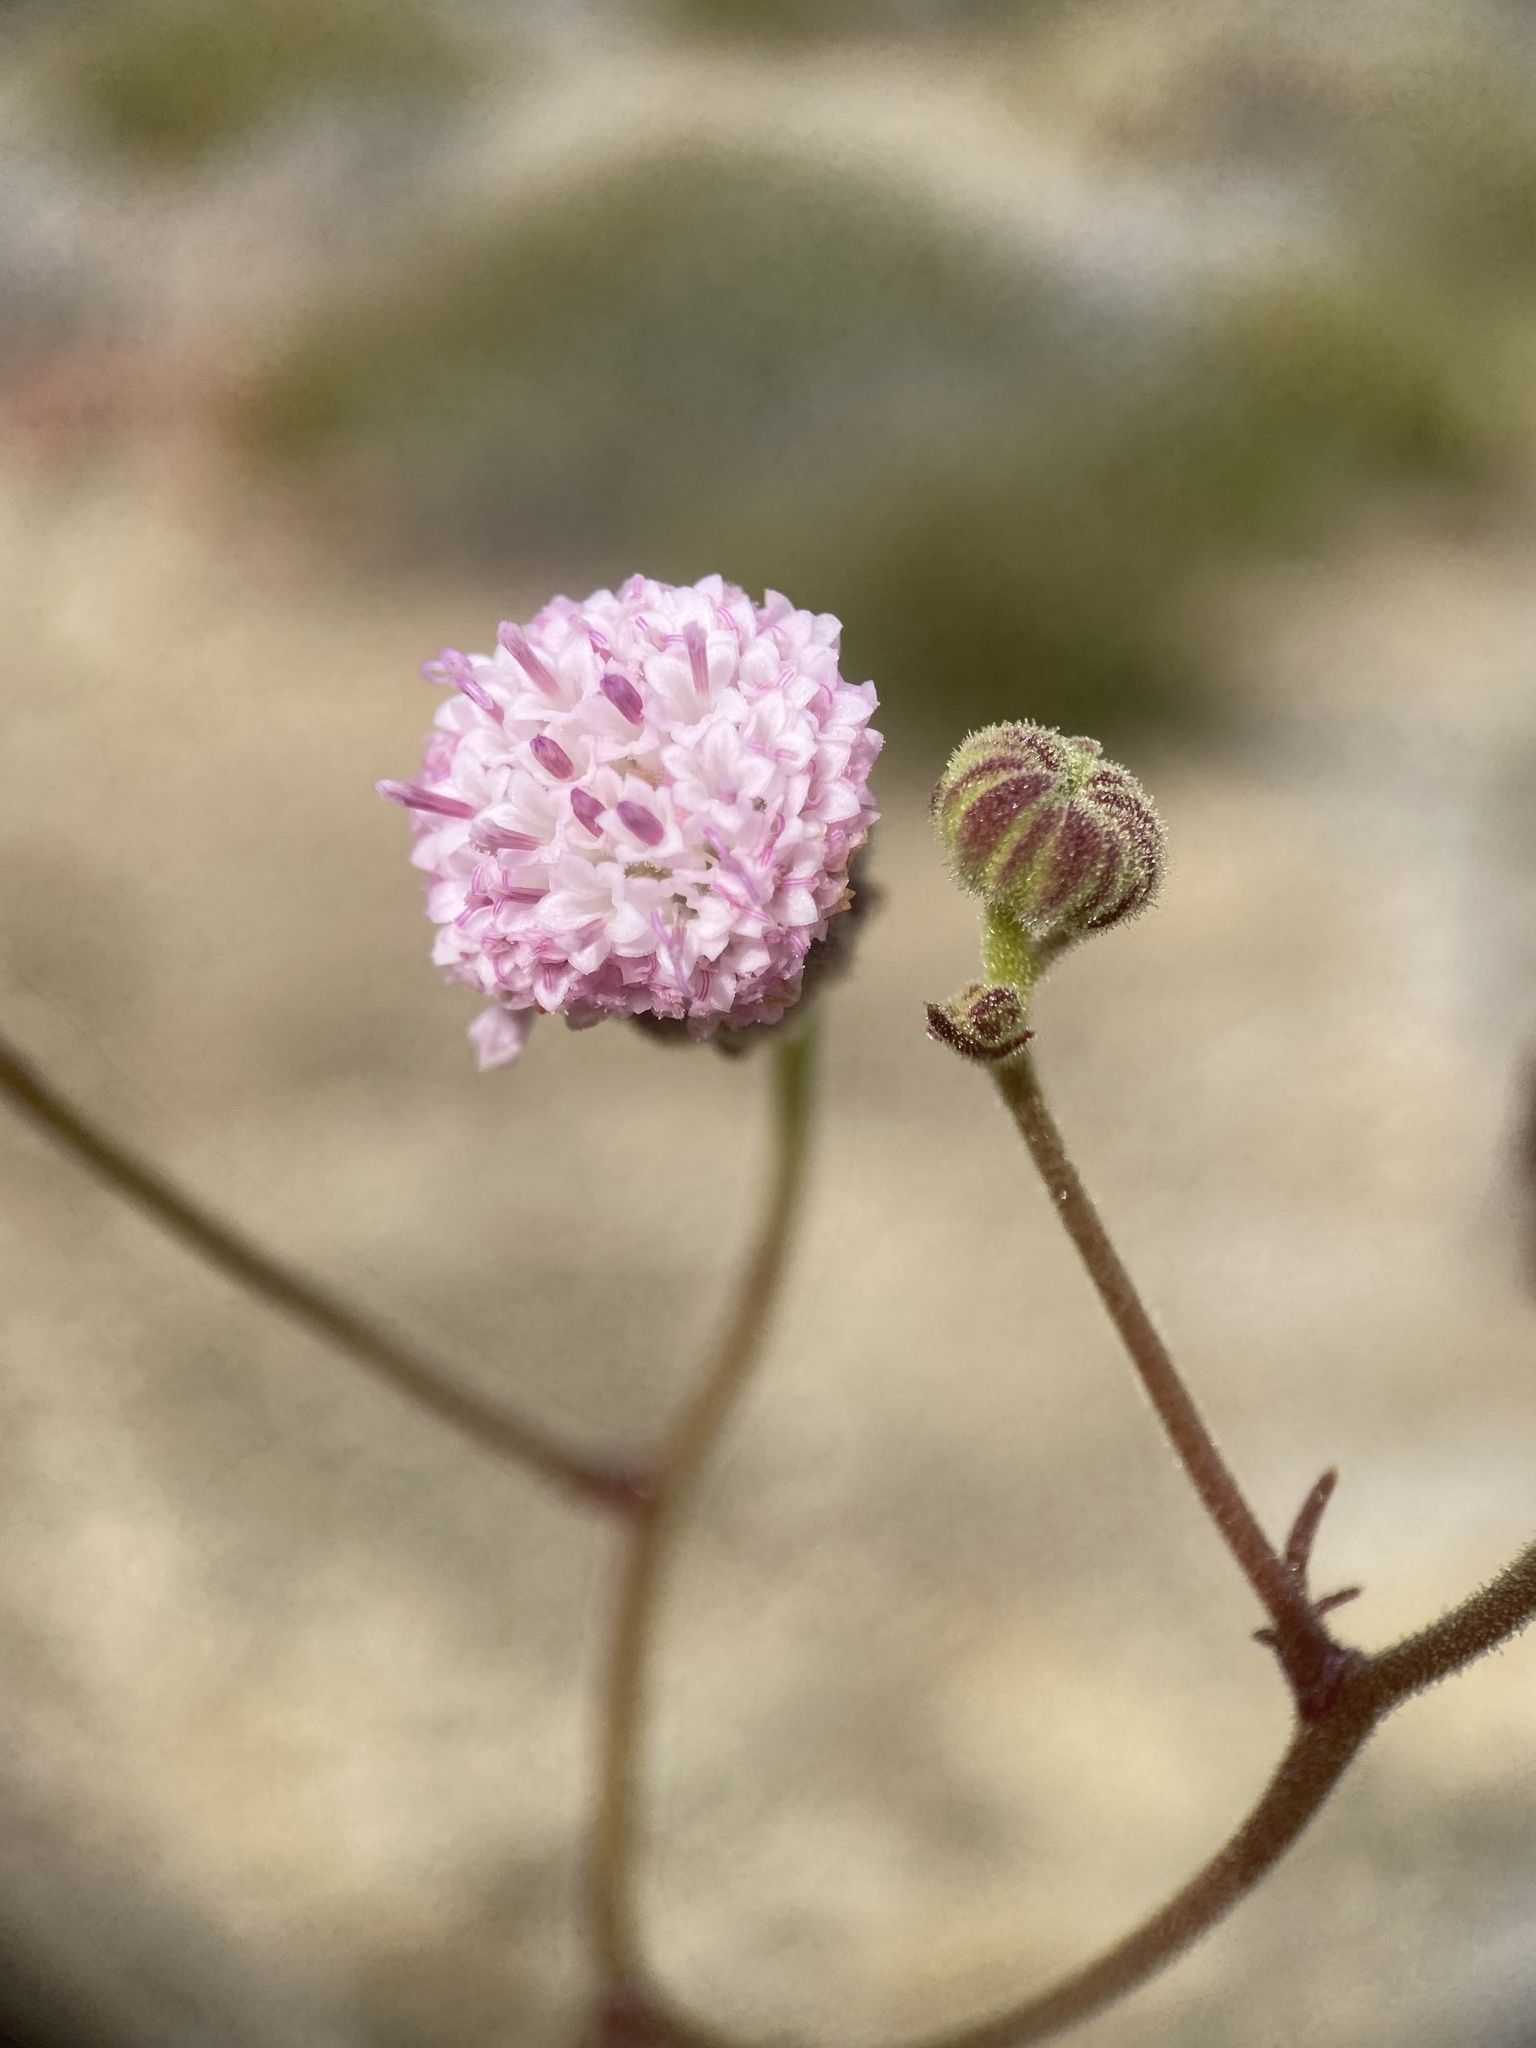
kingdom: Plantae
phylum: Tracheophyta
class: Magnoliopsida
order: Asterales
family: Asteraceae
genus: Chaenactis
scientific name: Chaenactis lacera
